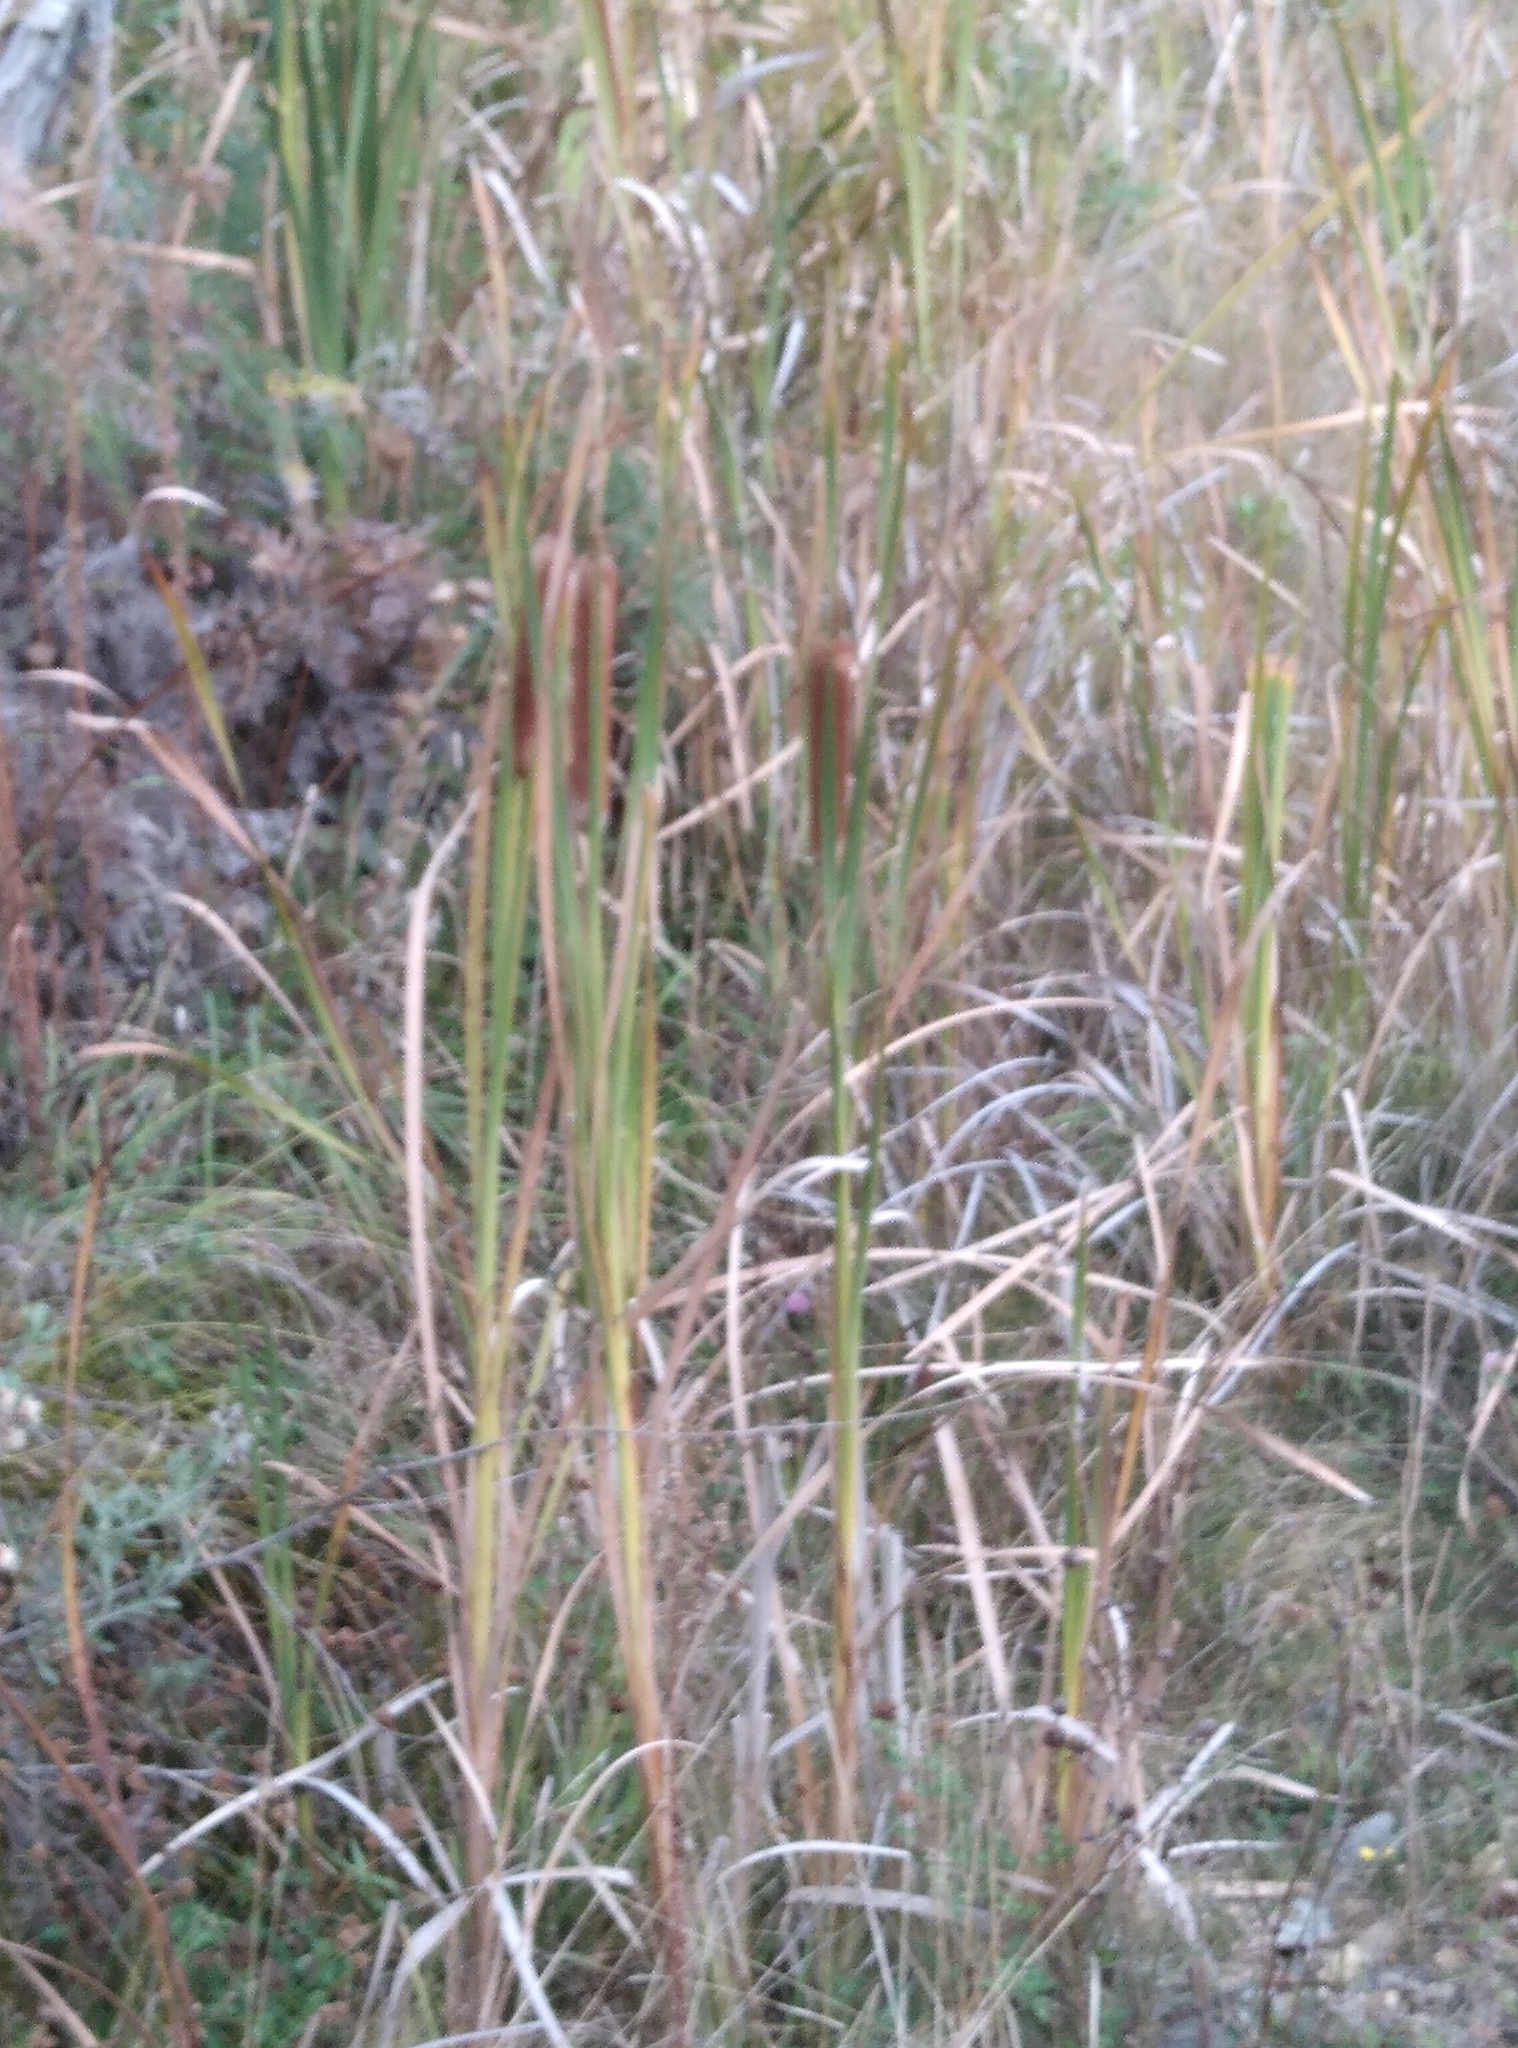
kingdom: Plantae
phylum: Tracheophyta
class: Liliopsida
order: Poales
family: Typhaceae
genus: Typha
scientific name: Typha orientalis
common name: Bullrush
